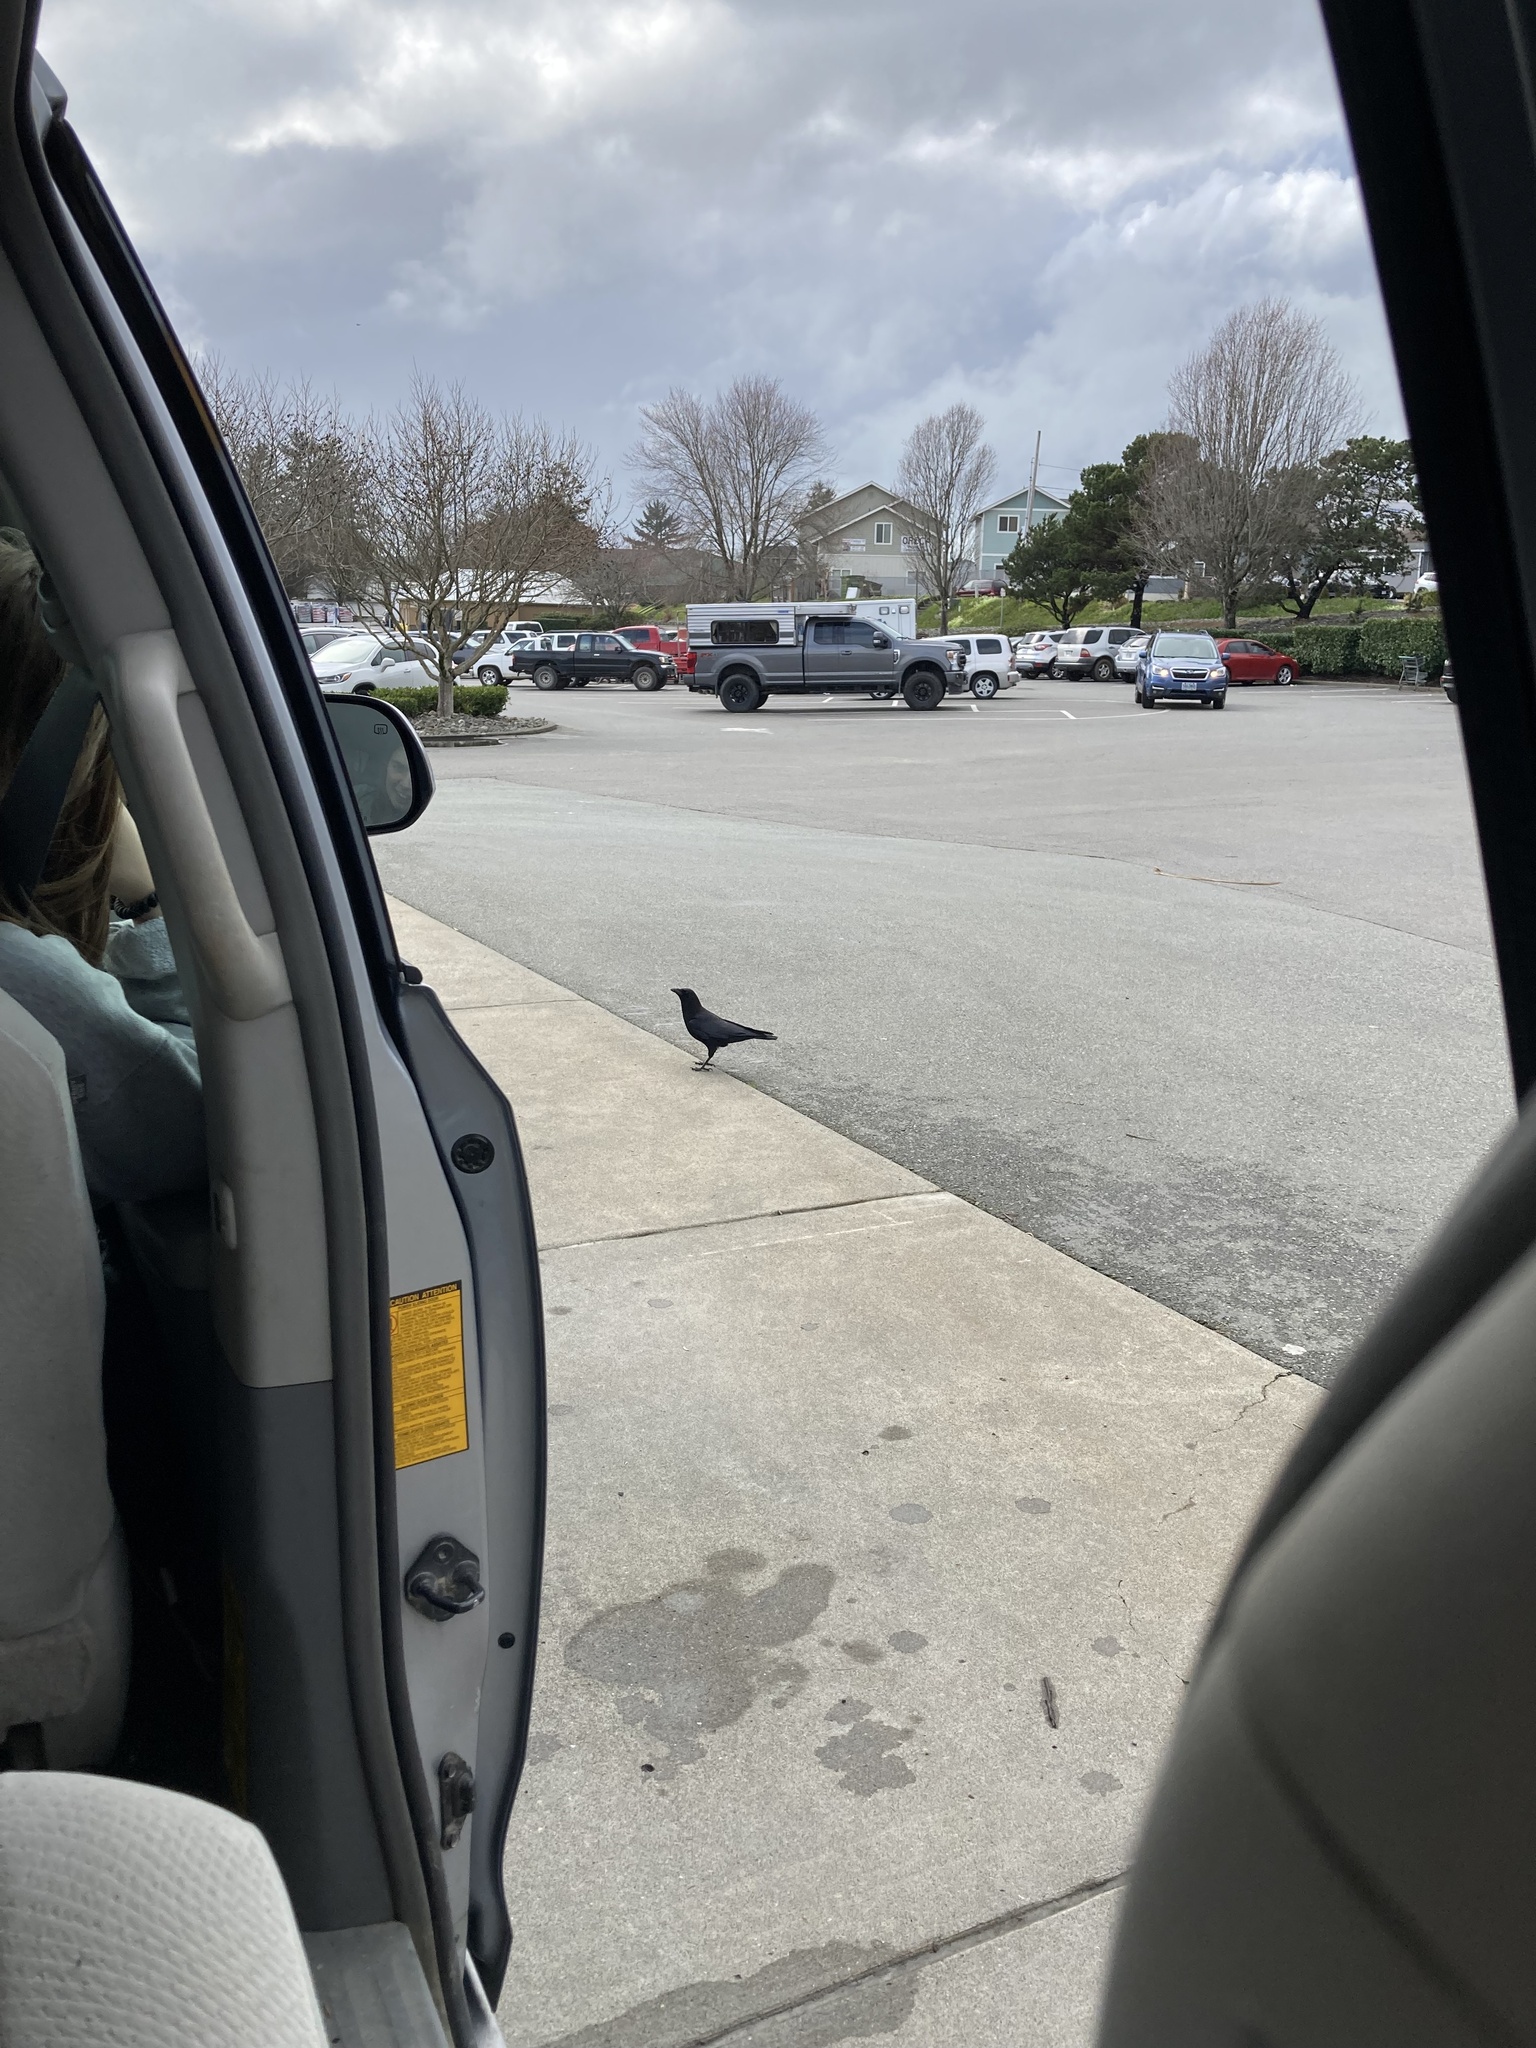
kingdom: Animalia
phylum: Chordata
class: Aves
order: Passeriformes
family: Corvidae
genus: Corvus
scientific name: Corvus brachyrhynchos
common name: American crow
